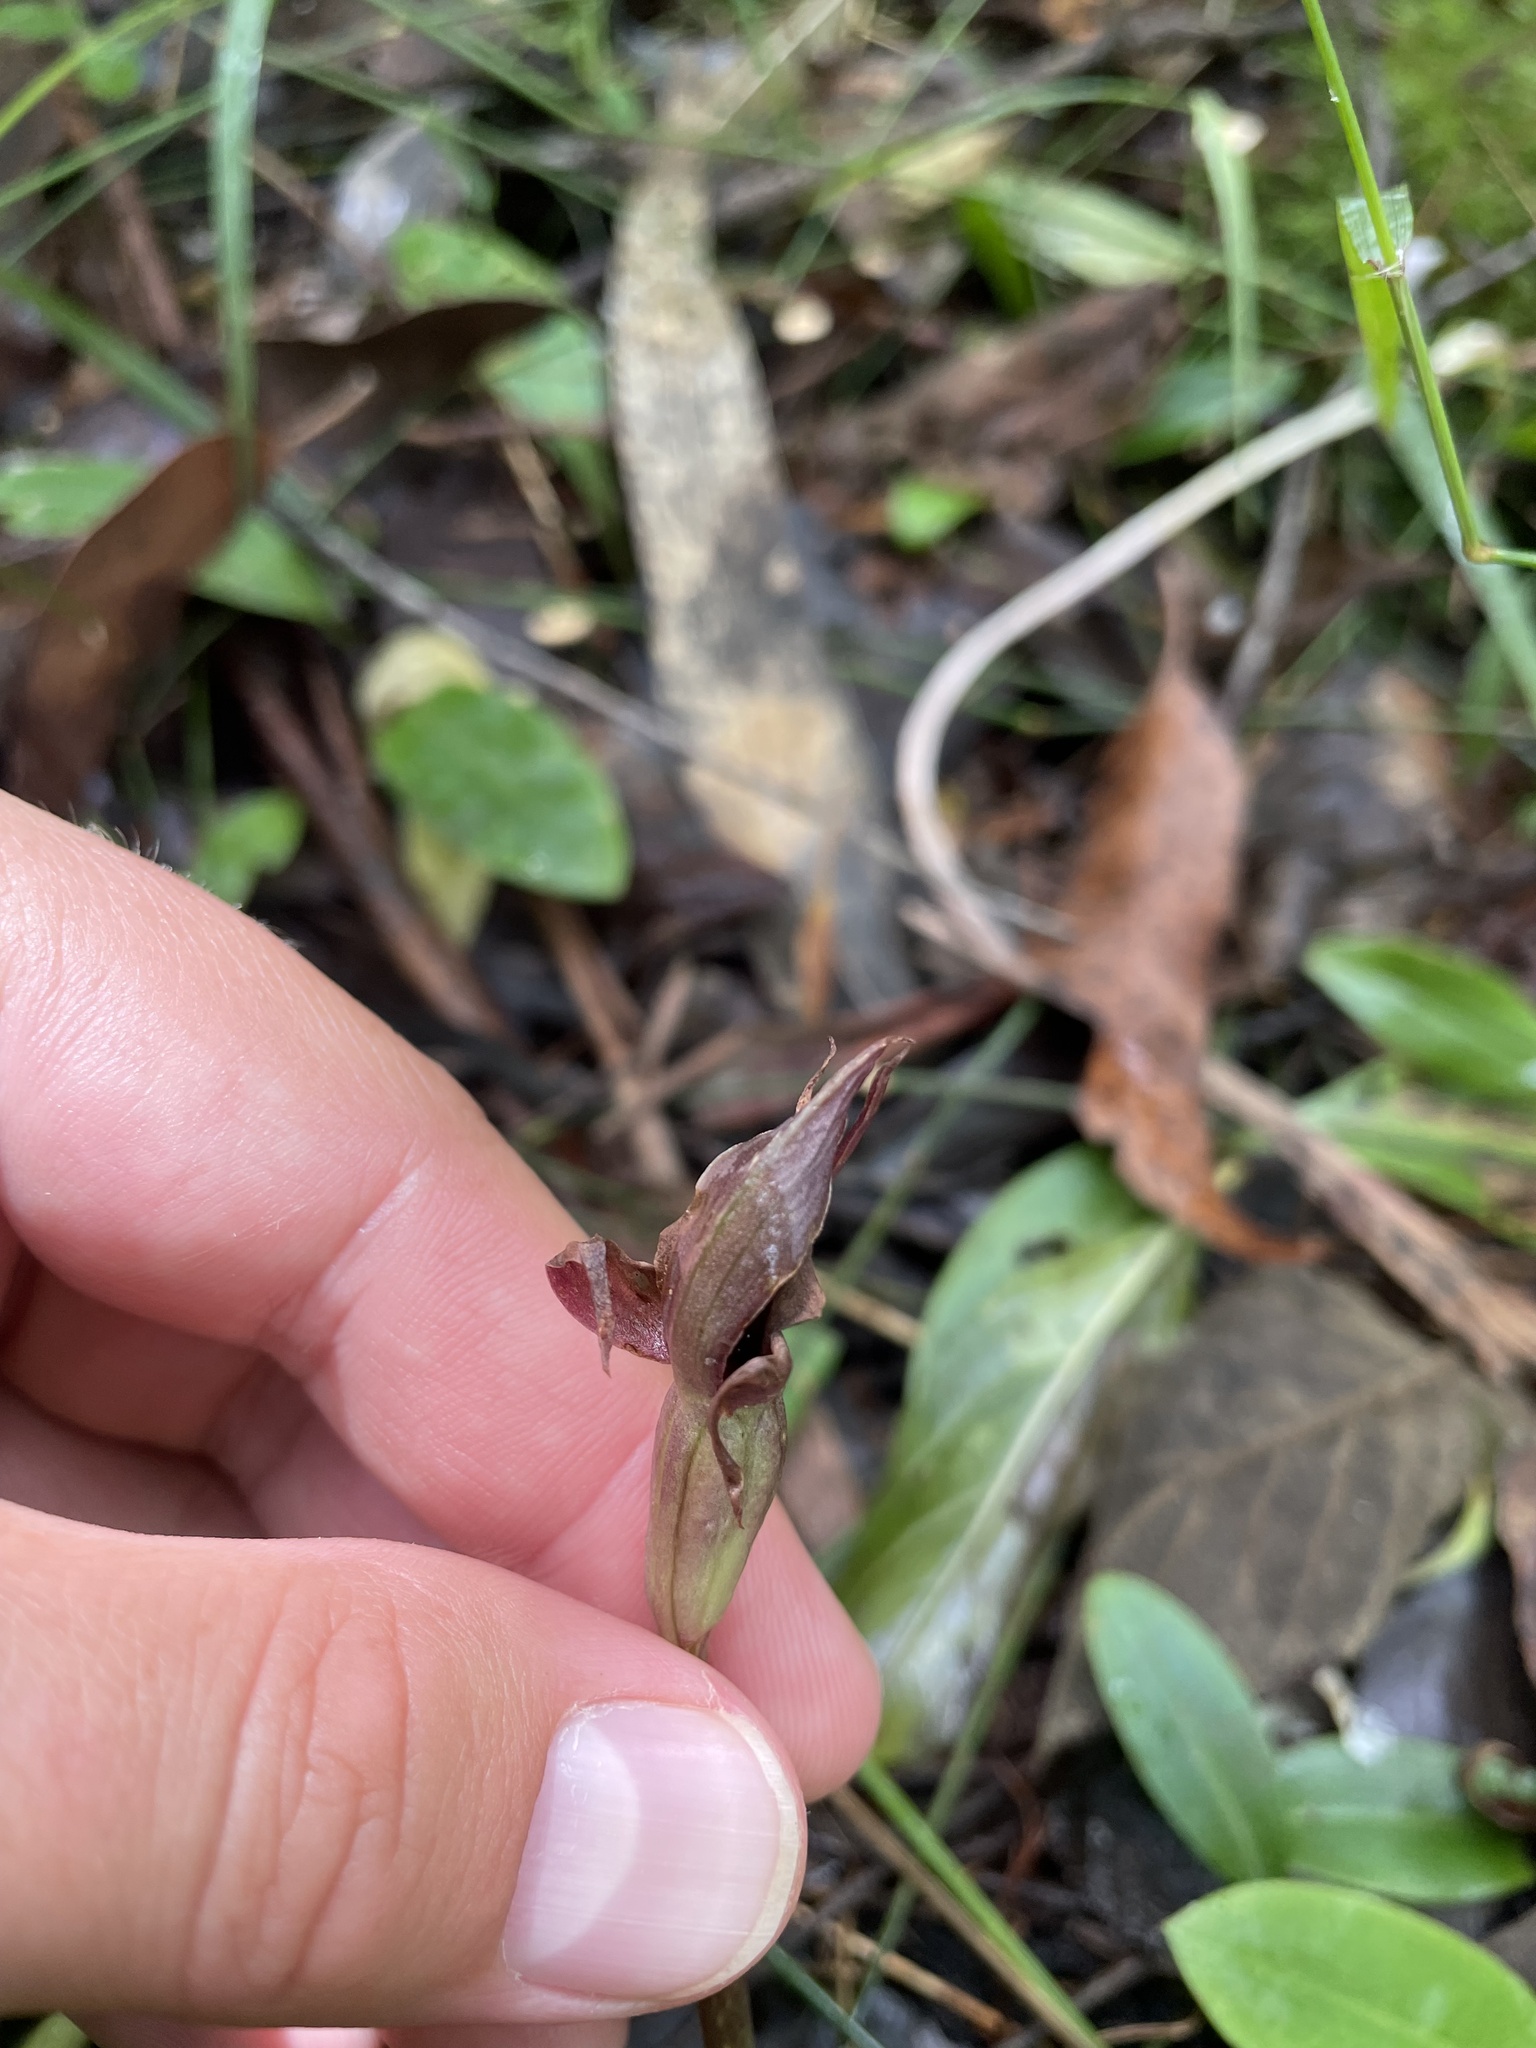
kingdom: Plantae
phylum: Tracheophyta
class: Liliopsida
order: Asparagales
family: Orchidaceae
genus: Chiloglottis
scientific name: Chiloglottis valida
